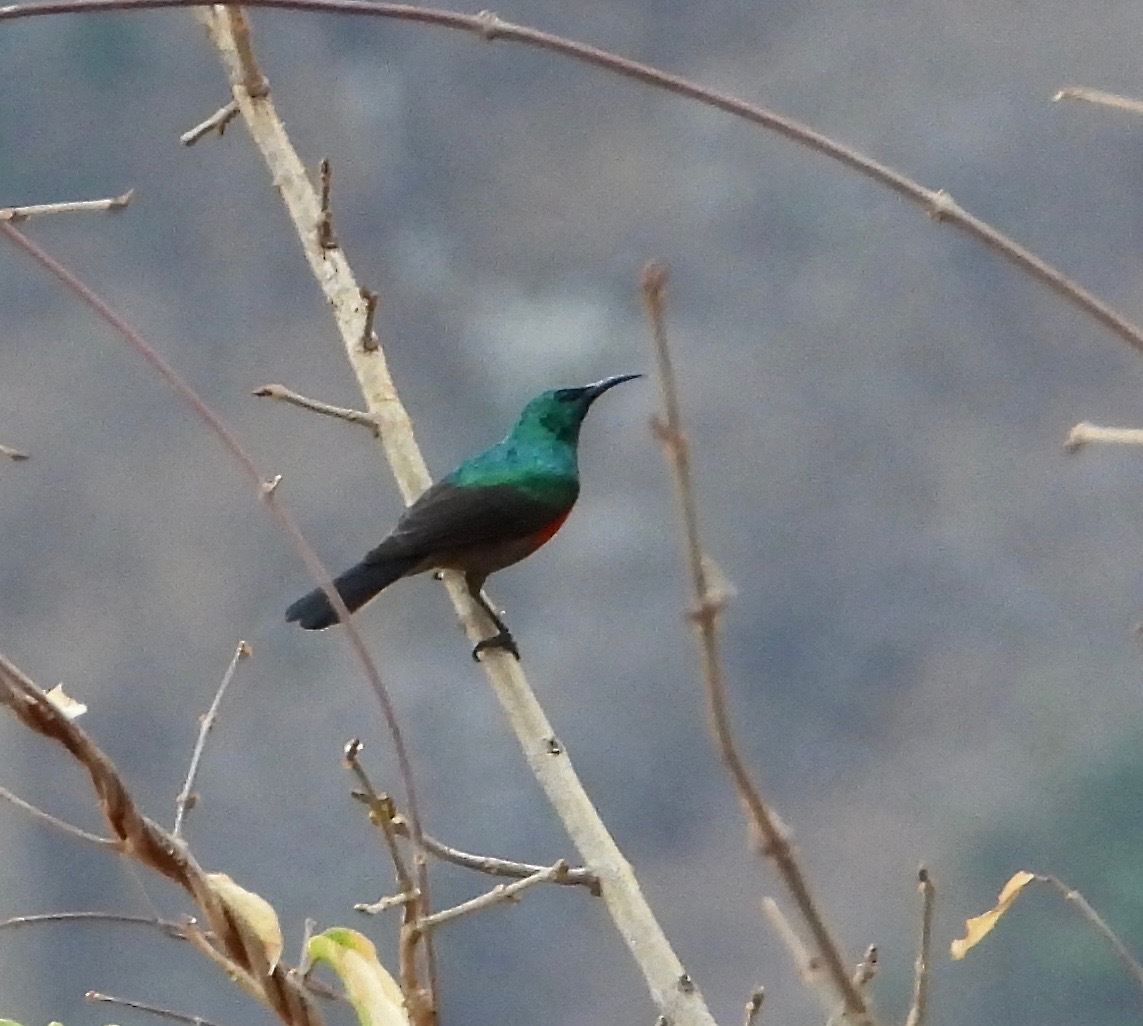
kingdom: Animalia
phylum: Chordata
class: Aves
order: Passeriformes
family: Nectariniidae
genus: Cinnyris
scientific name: Cinnyris ludovicensis
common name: Montane double-collared sunbird
